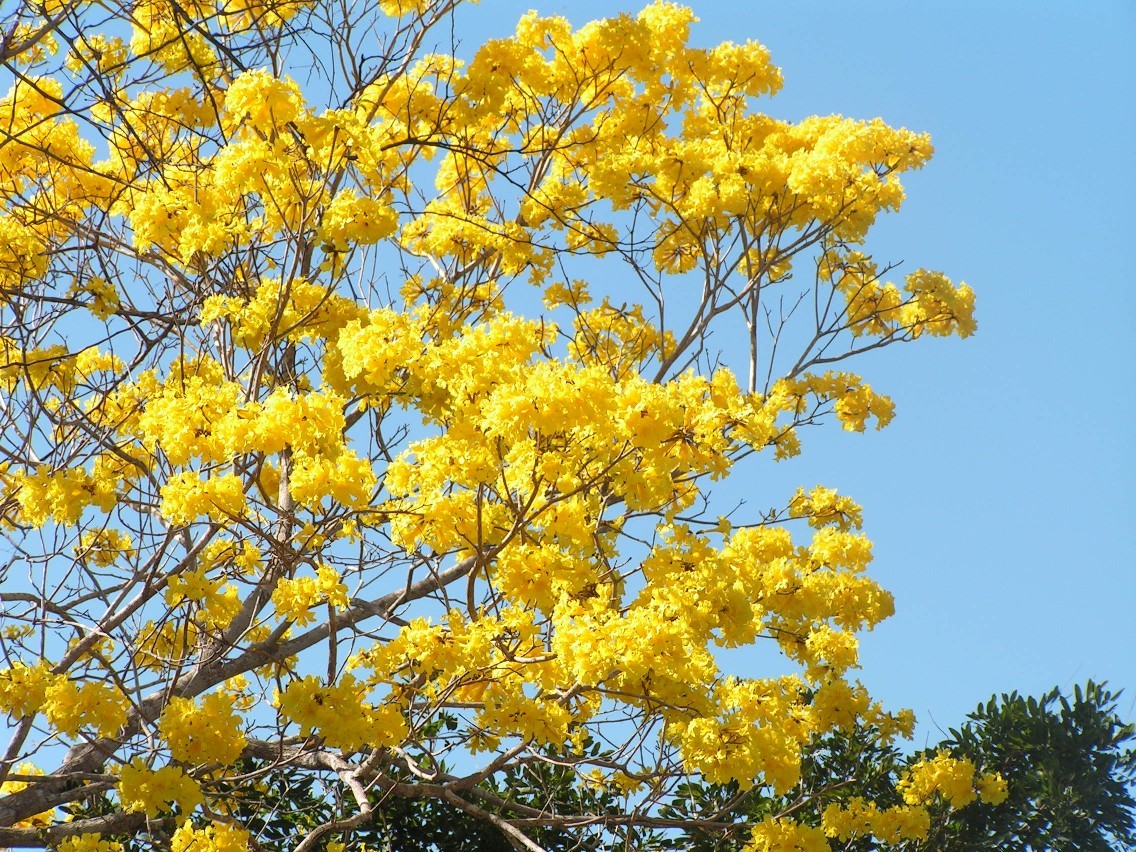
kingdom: Plantae
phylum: Tracheophyta
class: Magnoliopsida
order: Lamiales
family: Bignoniaceae
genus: Handroanthus
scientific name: Handroanthus chrysanthus
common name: Trumpet trees
